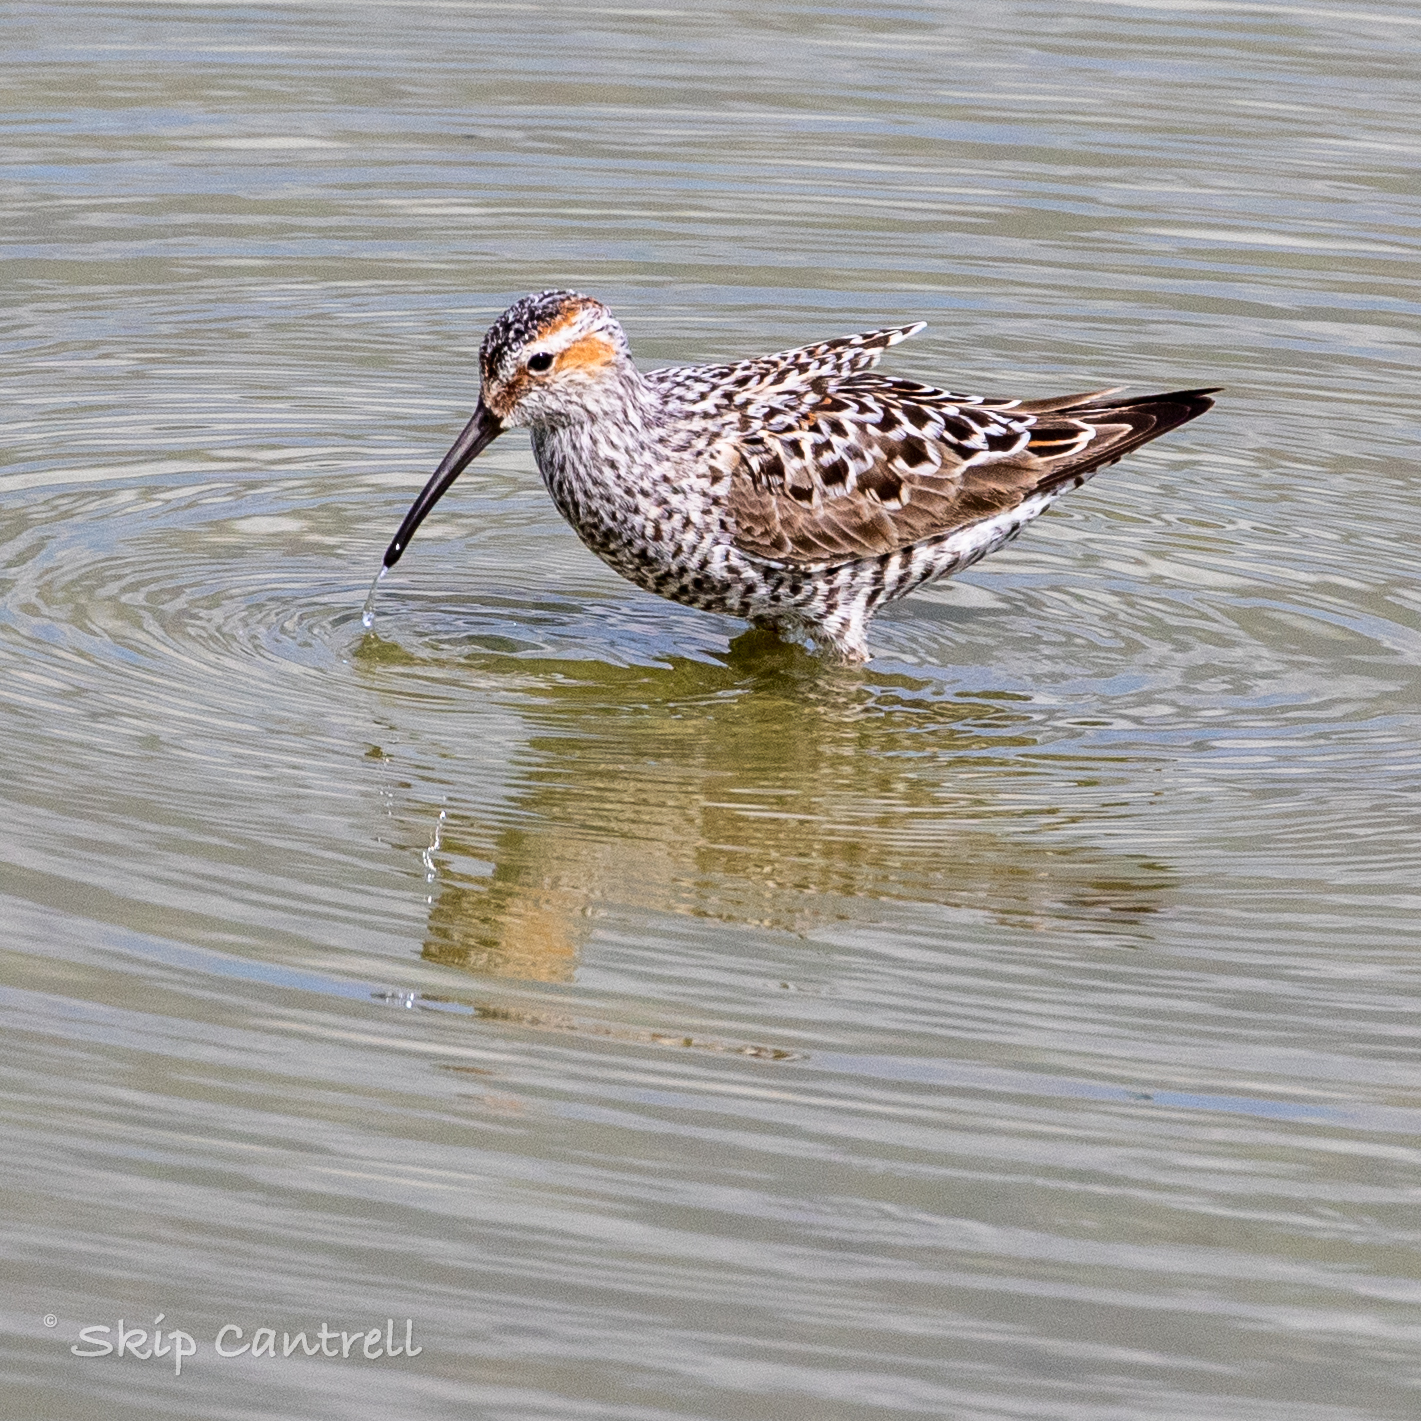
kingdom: Animalia
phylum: Chordata
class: Aves
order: Charadriiformes
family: Scolopacidae
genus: Calidris
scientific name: Calidris himantopus
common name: Stilt sandpiper
